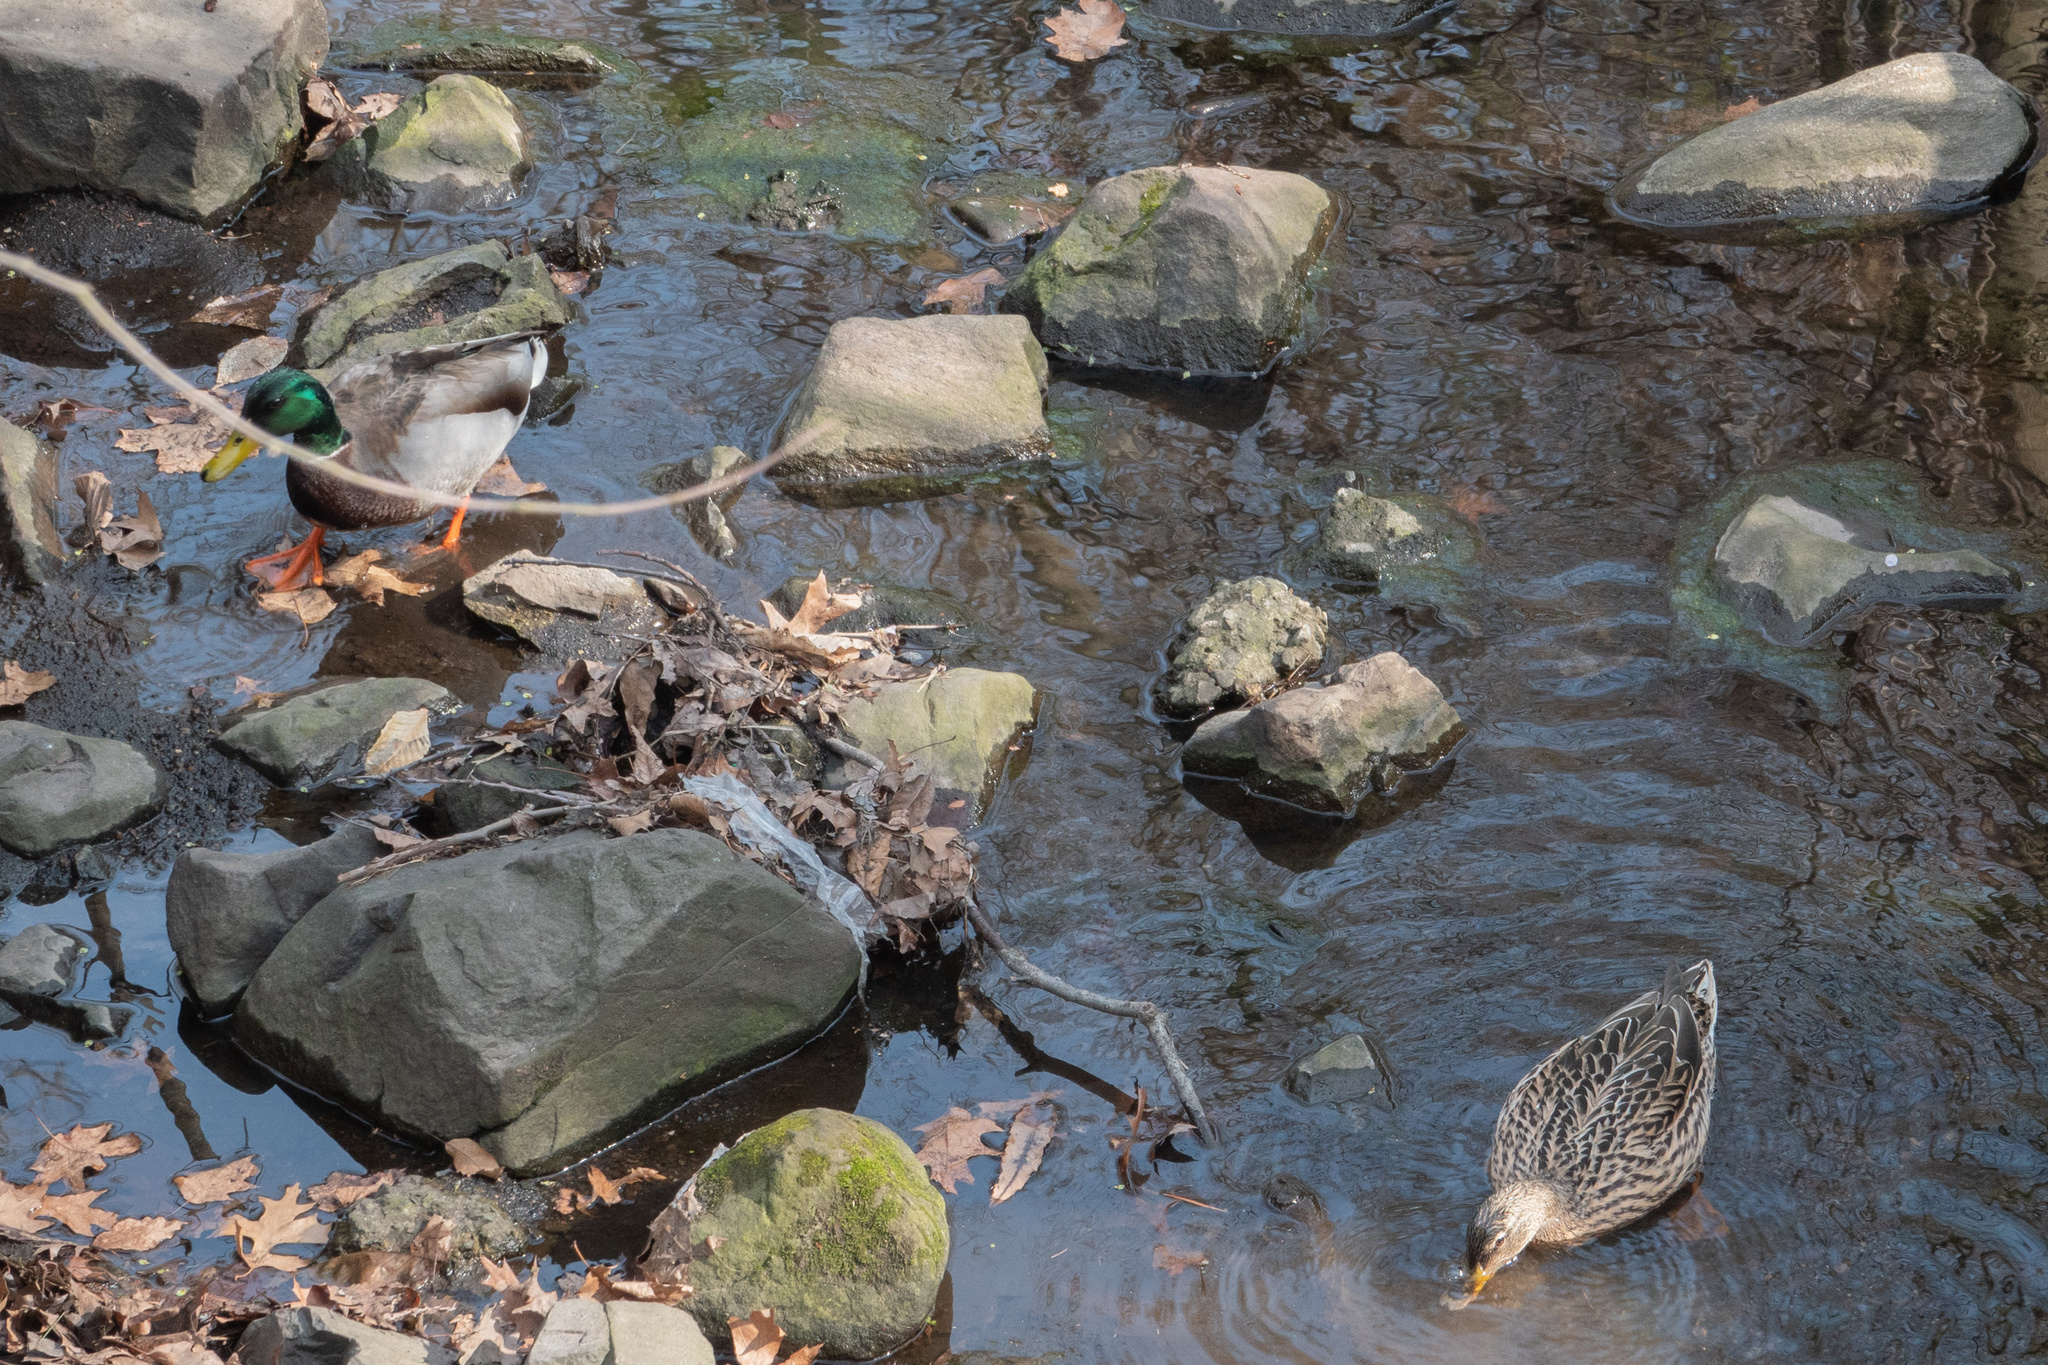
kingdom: Animalia
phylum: Chordata
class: Aves
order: Anseriformes
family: Anatidae
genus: Anas
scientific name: Anas platyrhynchos
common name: Mallard
